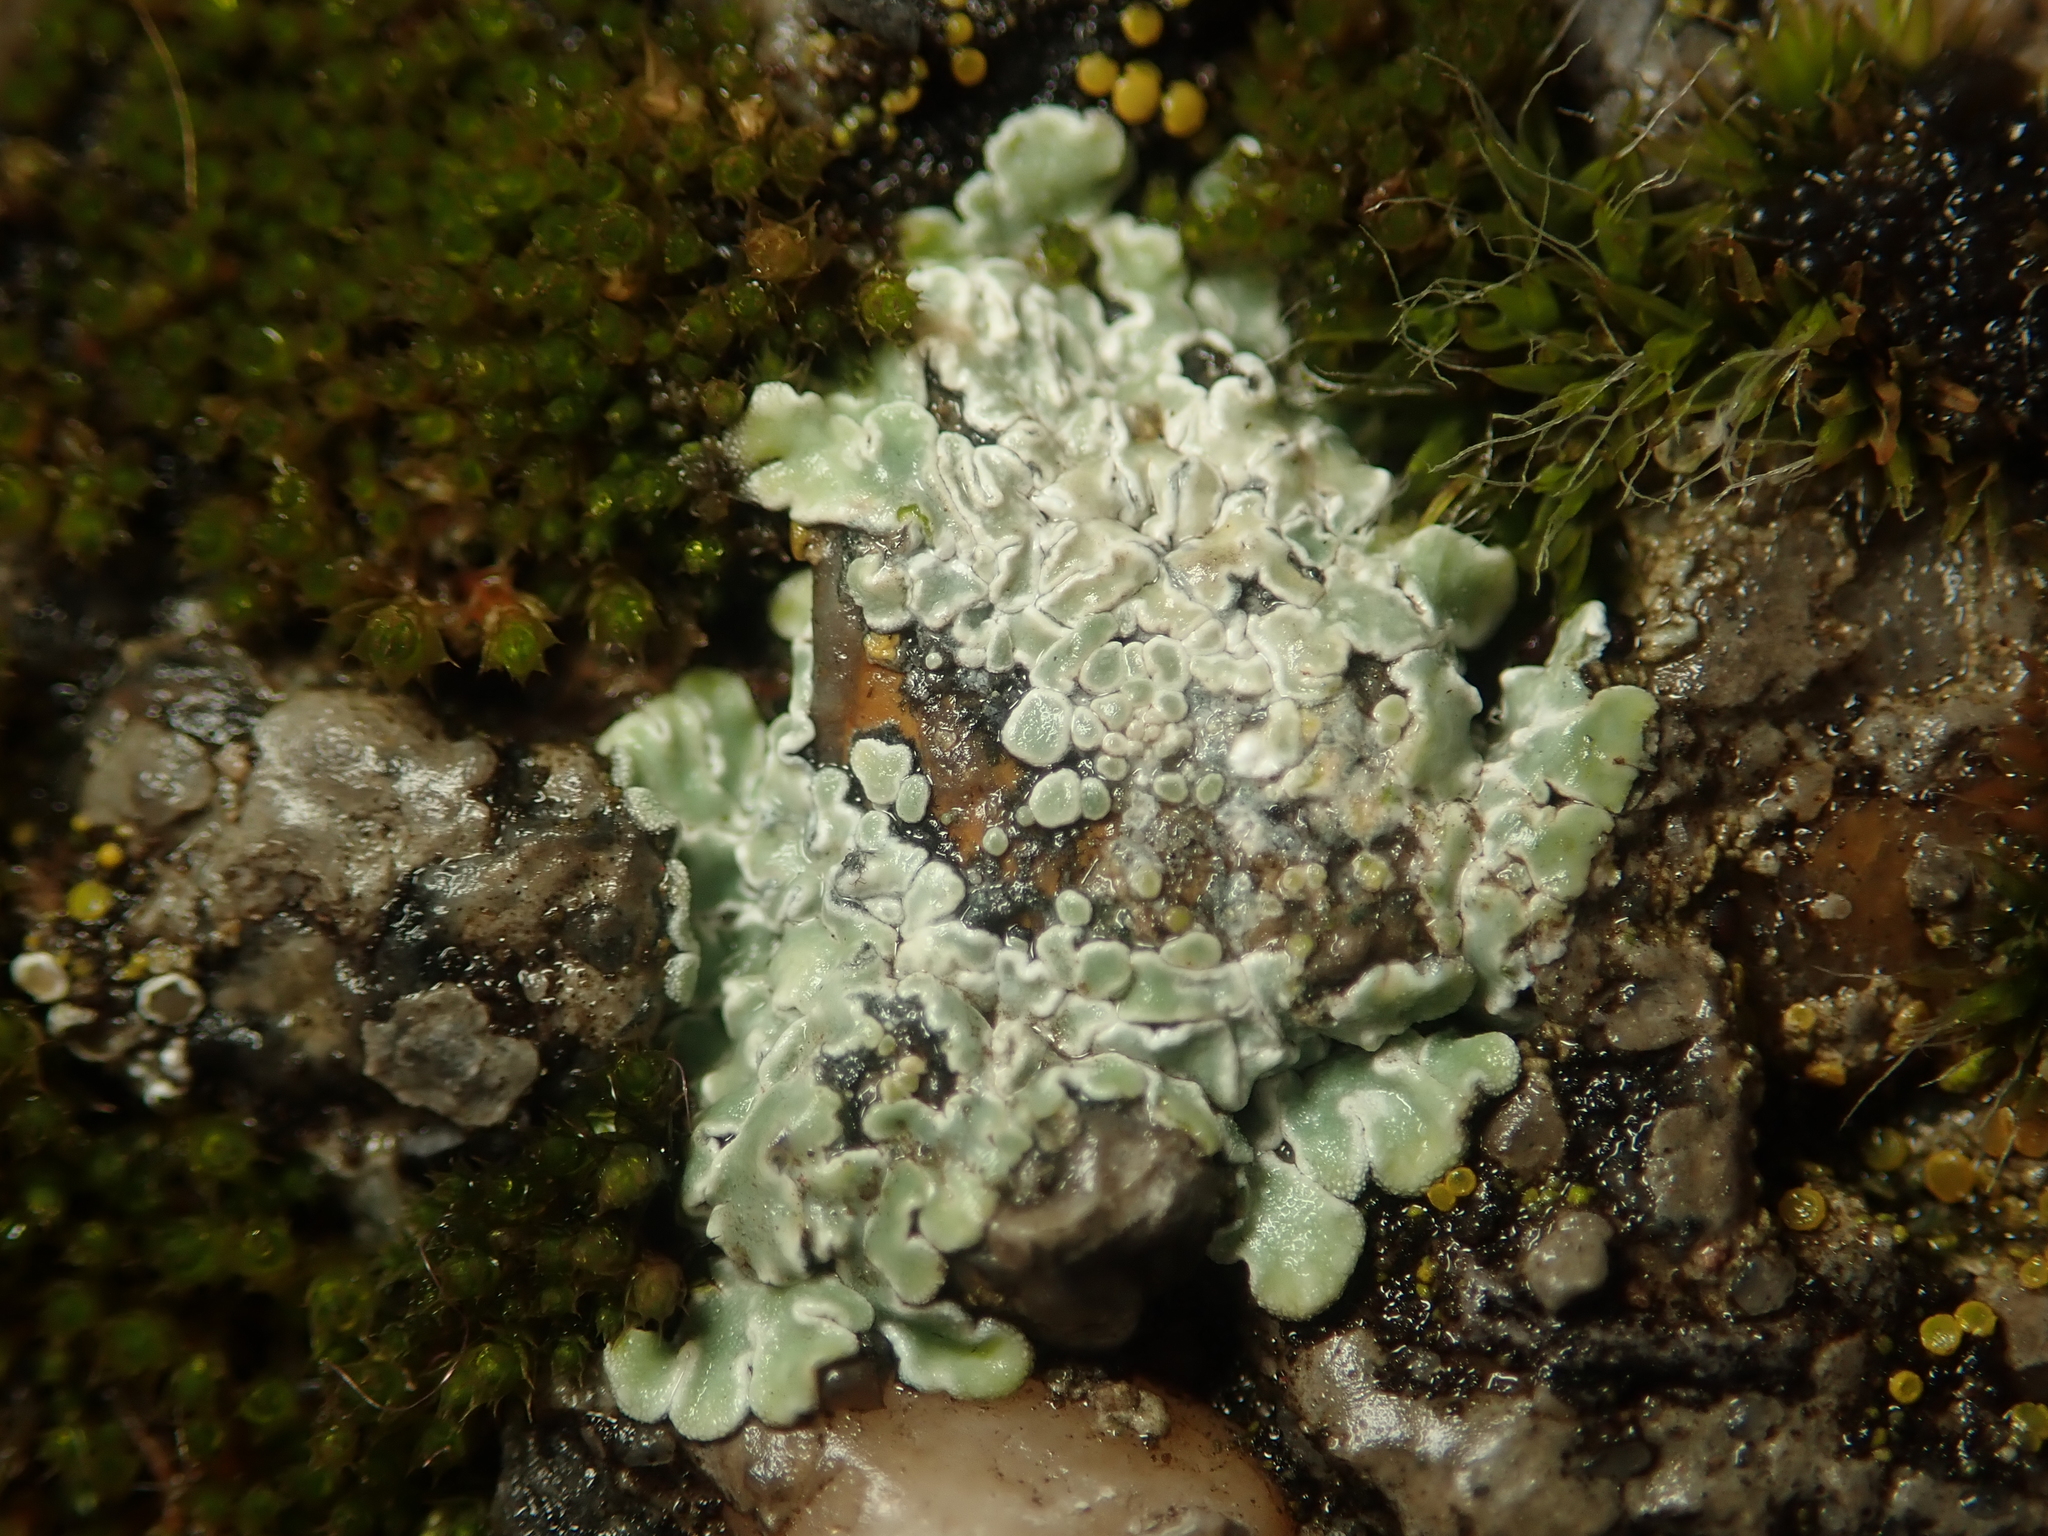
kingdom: Fungi
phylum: Ascomycota
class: Lecanoromycetes
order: Lecanorales
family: Lecanoraceae
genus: Protoparmeliopsis
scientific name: Protoparmeliopsis muralis
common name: Stonewall rim lichen
